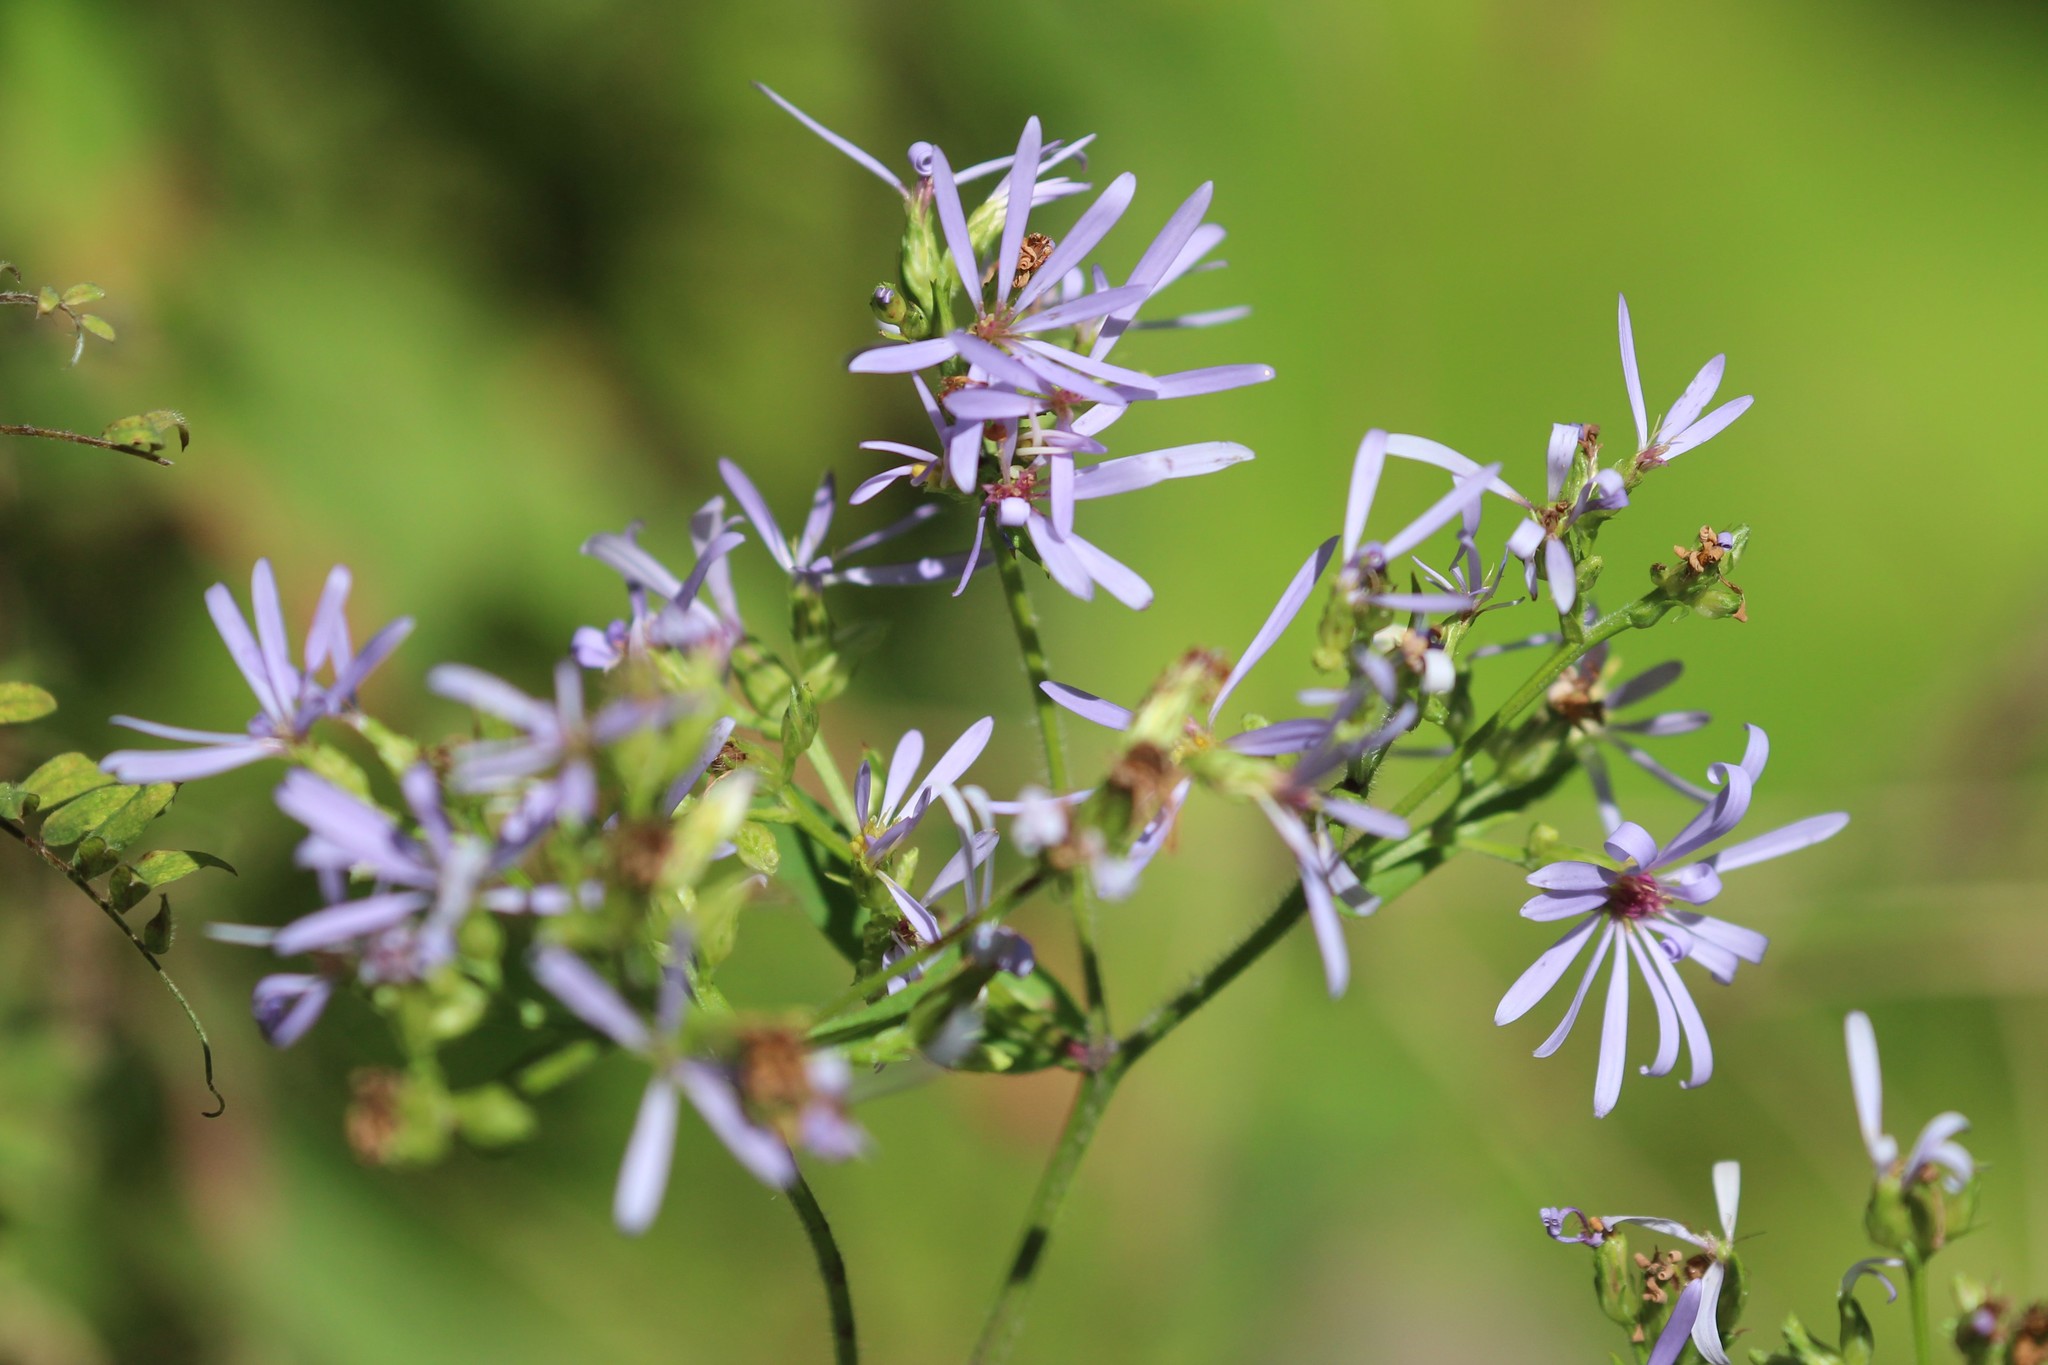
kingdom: Plantae
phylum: Tracheophyta
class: Magnoliopsida
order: Asterales
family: Asteraceae
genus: Symphyotrichum
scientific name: Symphyotrichum ciliolatum
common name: Fringed blue aster
